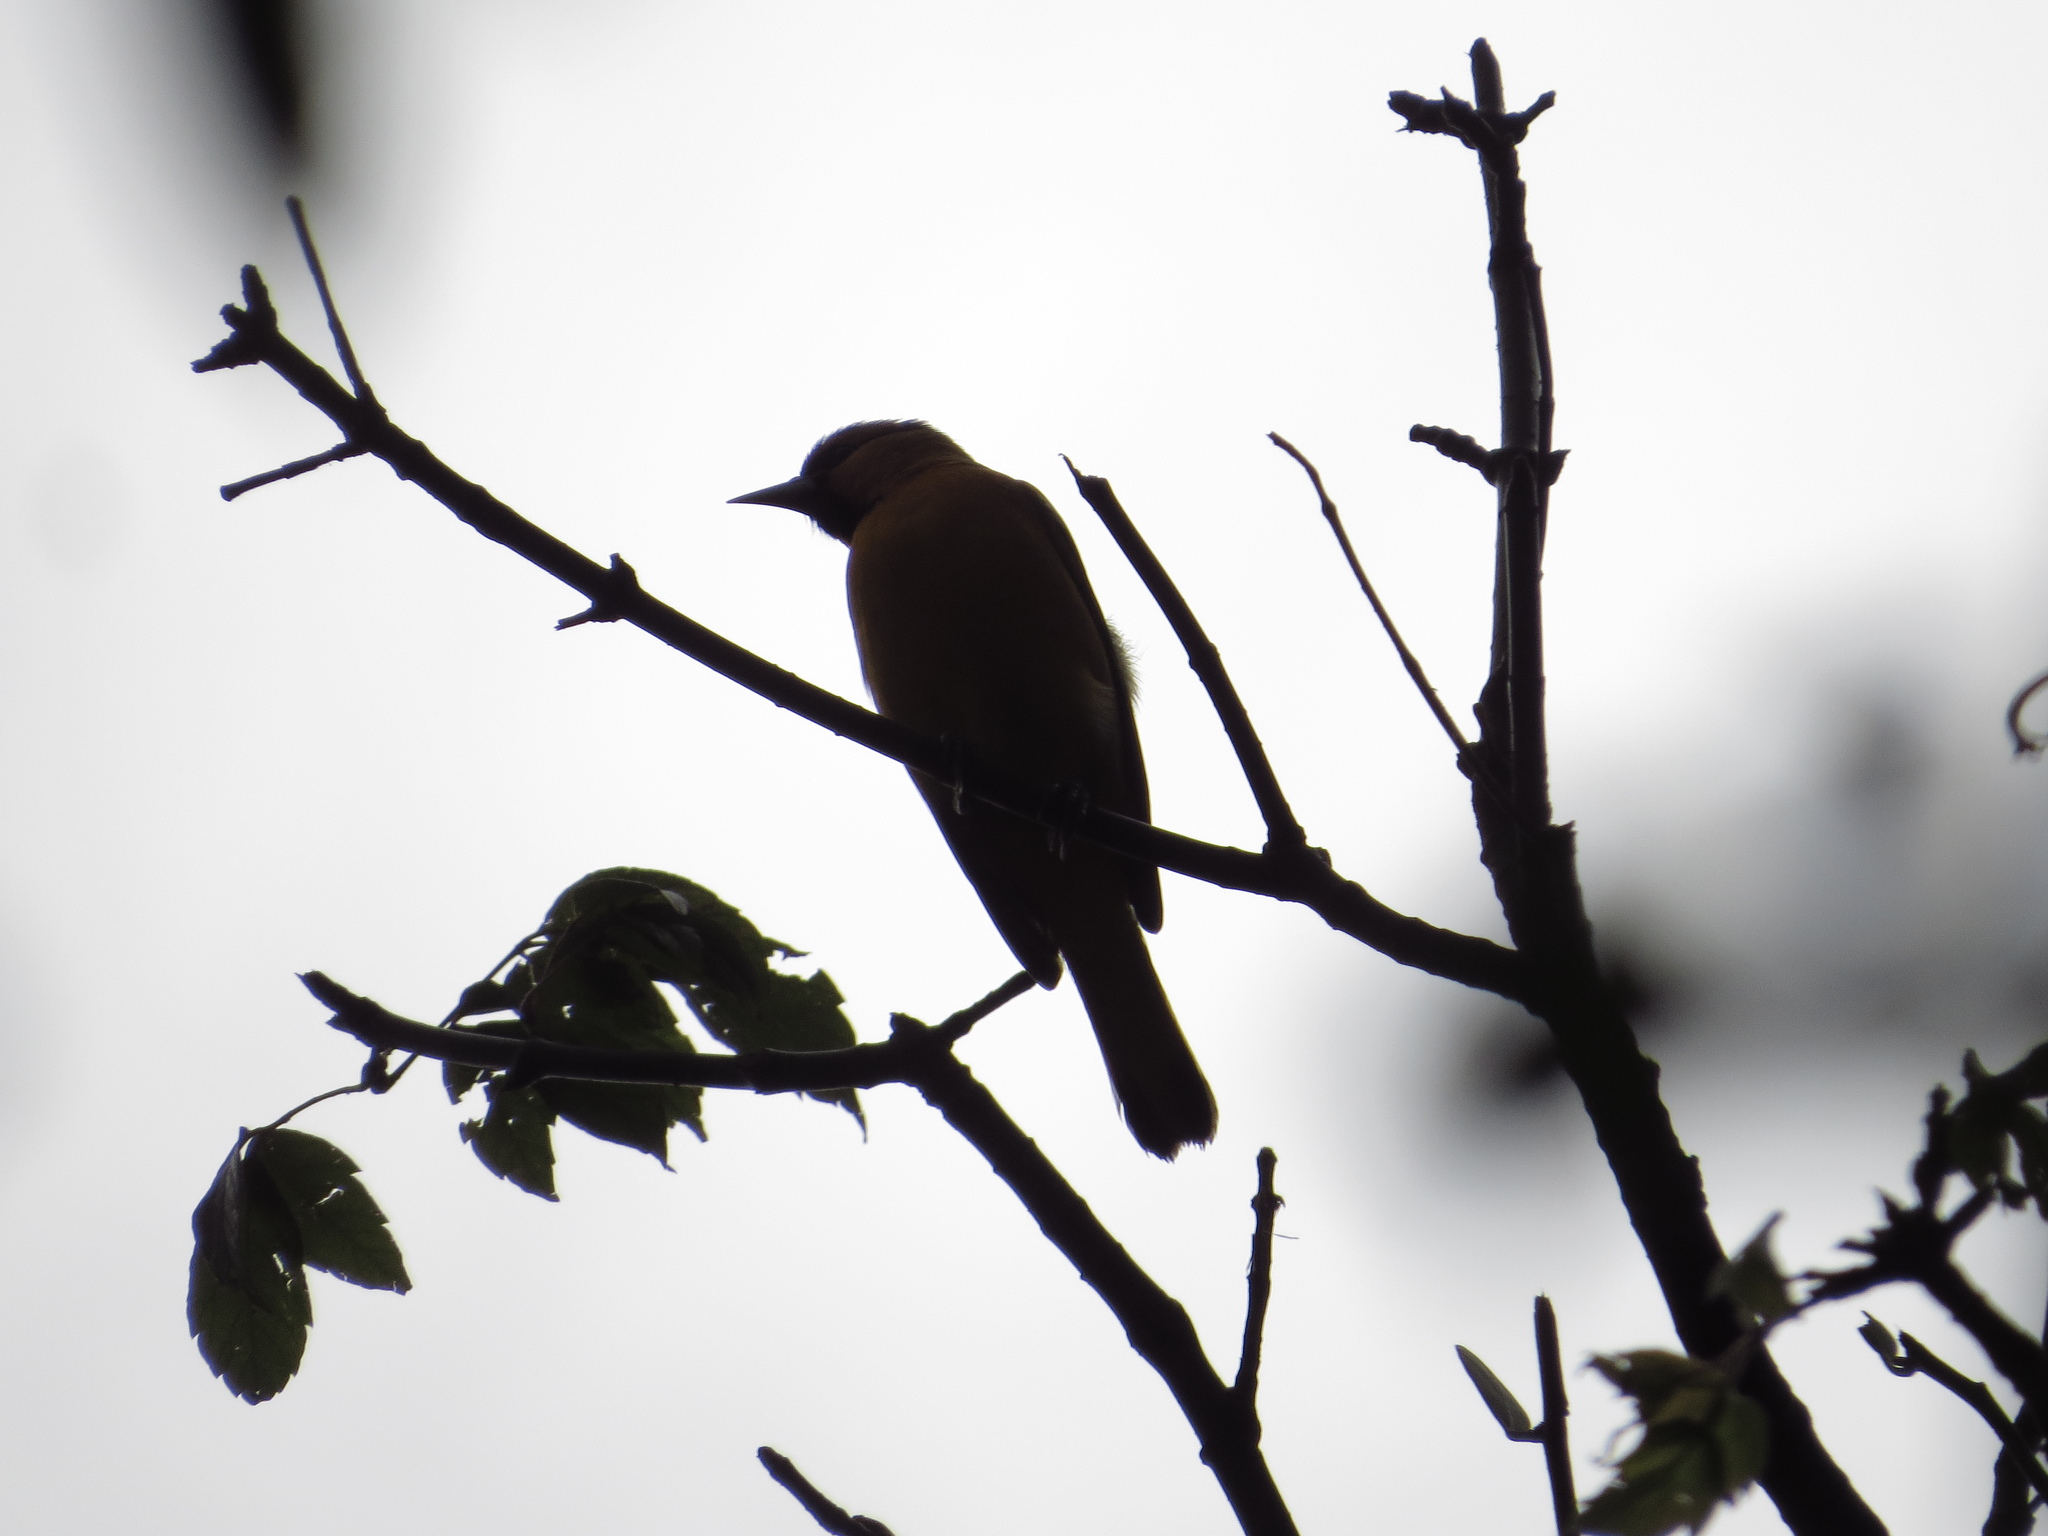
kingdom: Animalia
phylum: Chordata
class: Aves
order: Passeriformes
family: Icteridae
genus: Icterus
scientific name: Icterus pustulatus
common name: Streak-backed oriole
